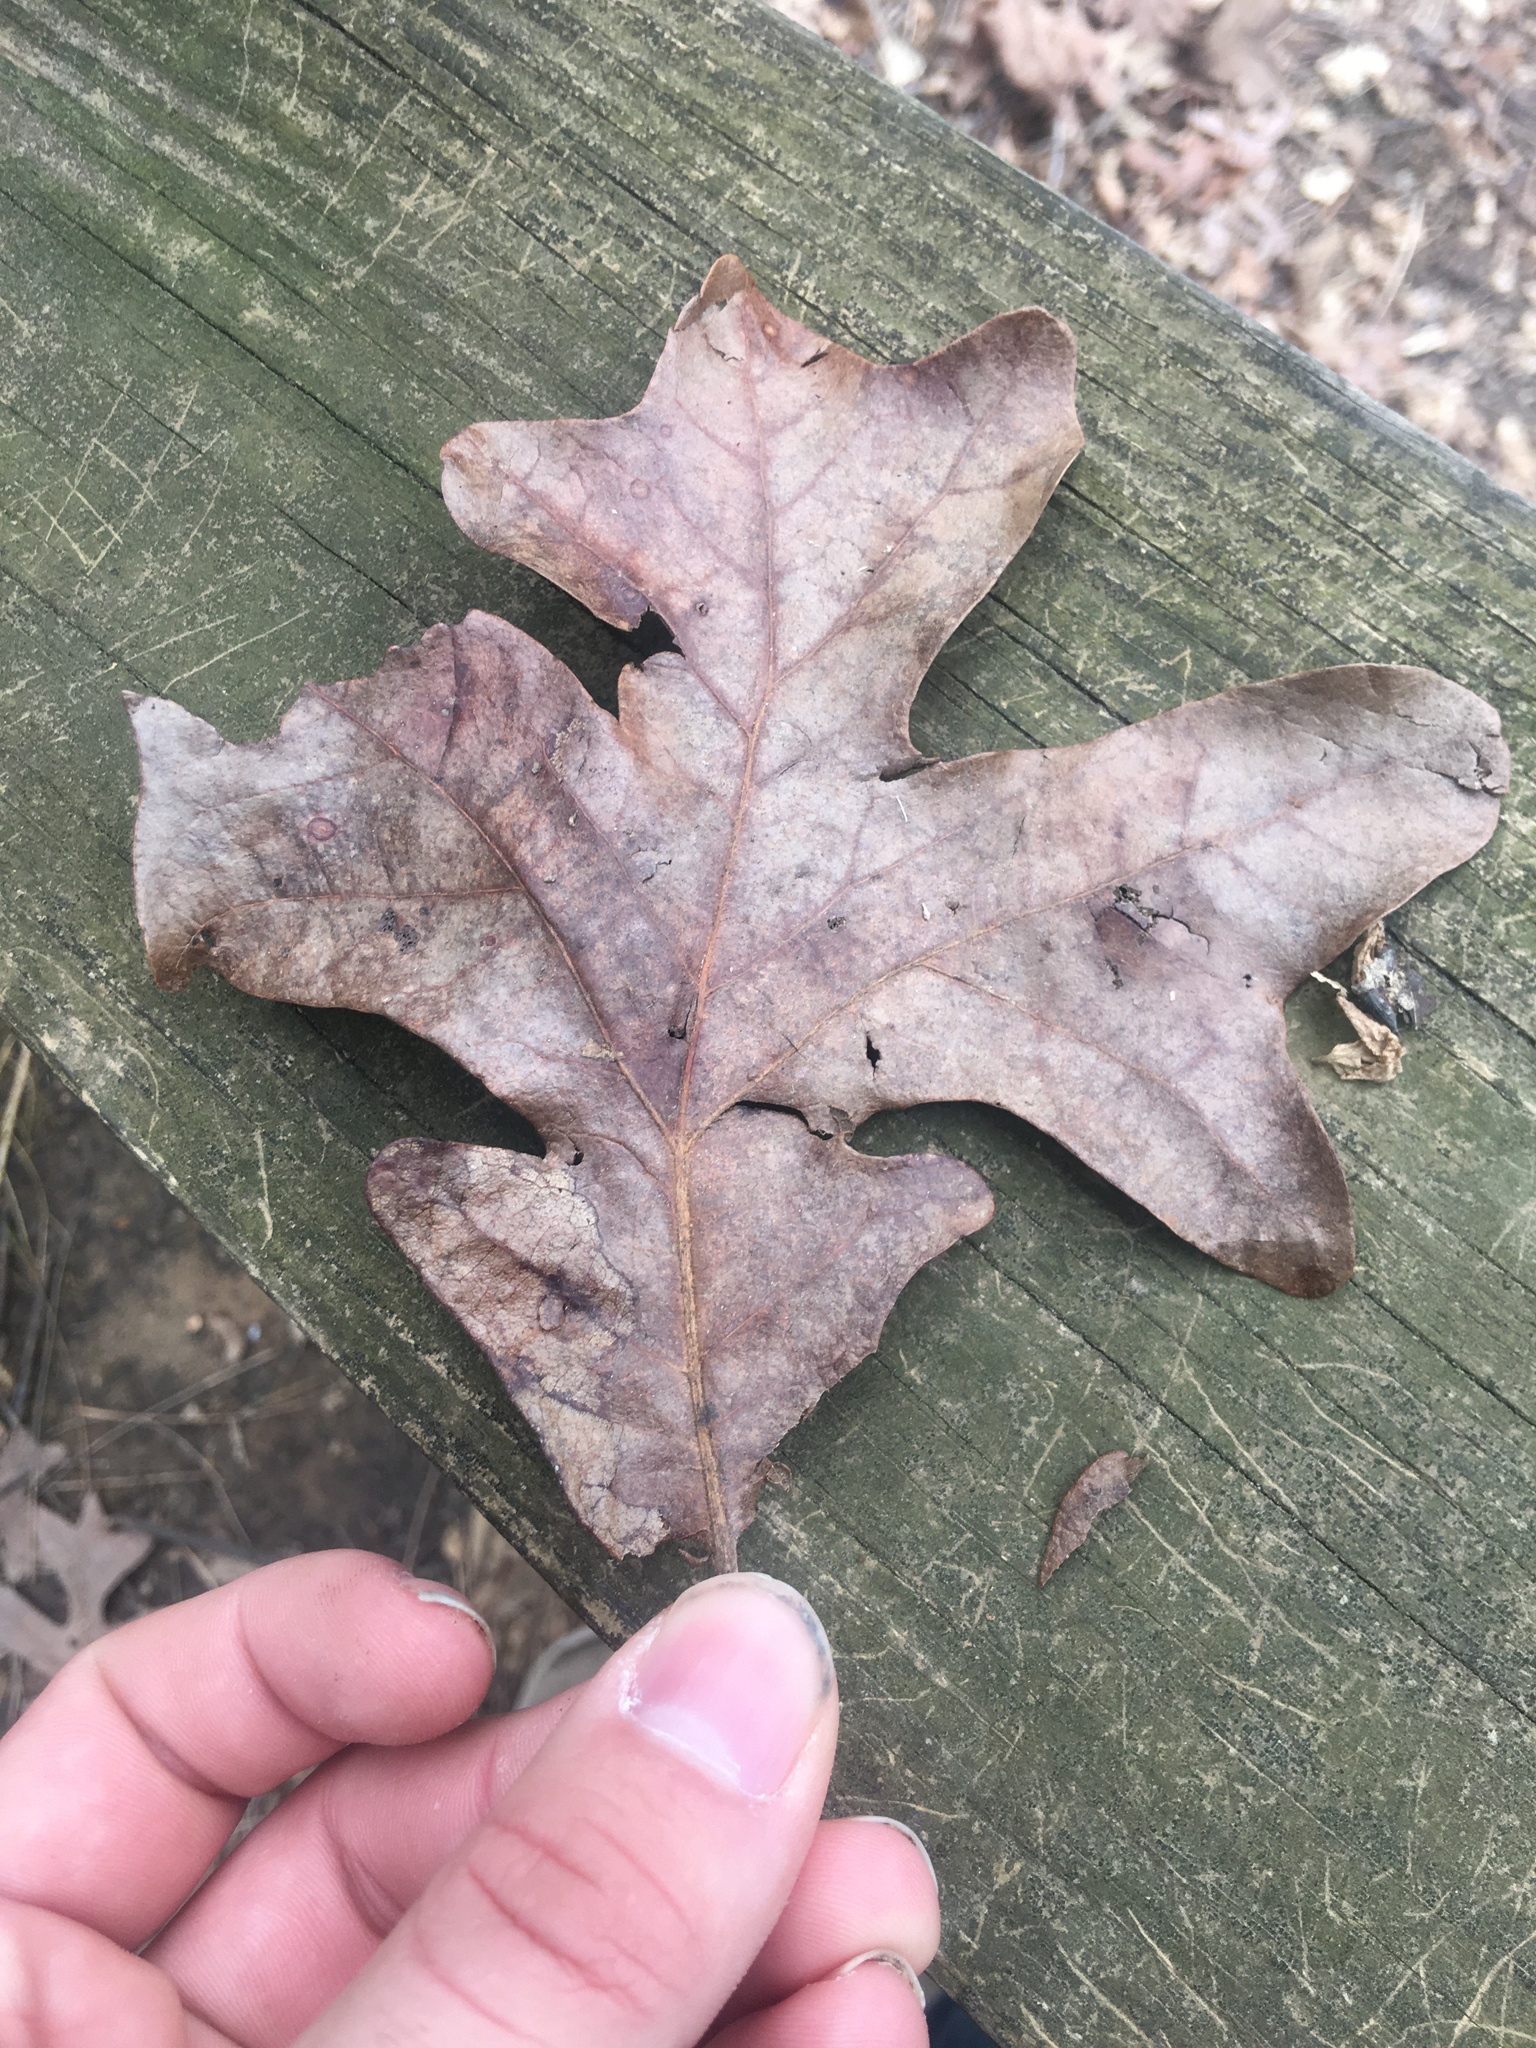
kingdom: Plantae
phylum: Tracheophyta
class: Magnoliopsida
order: Fagales
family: Fagaceae
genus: Quercus
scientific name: Quercus stellata
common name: Post oak
